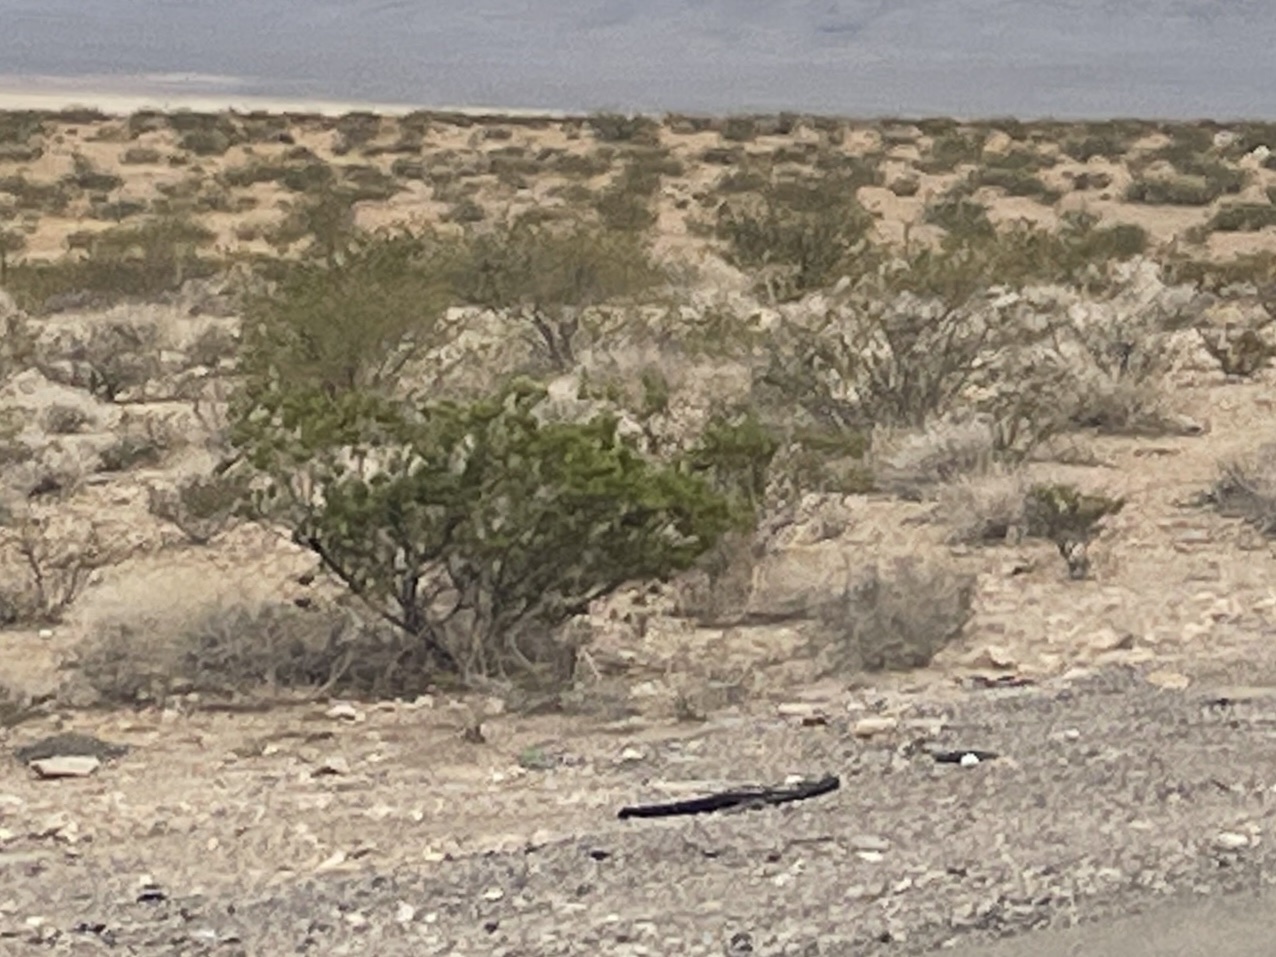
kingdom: Plantae
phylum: Tracheophyta
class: Magnoliopsida
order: Zygophyllales
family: Zygophyllaceae
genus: Larrea
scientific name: Larrea tridentata
